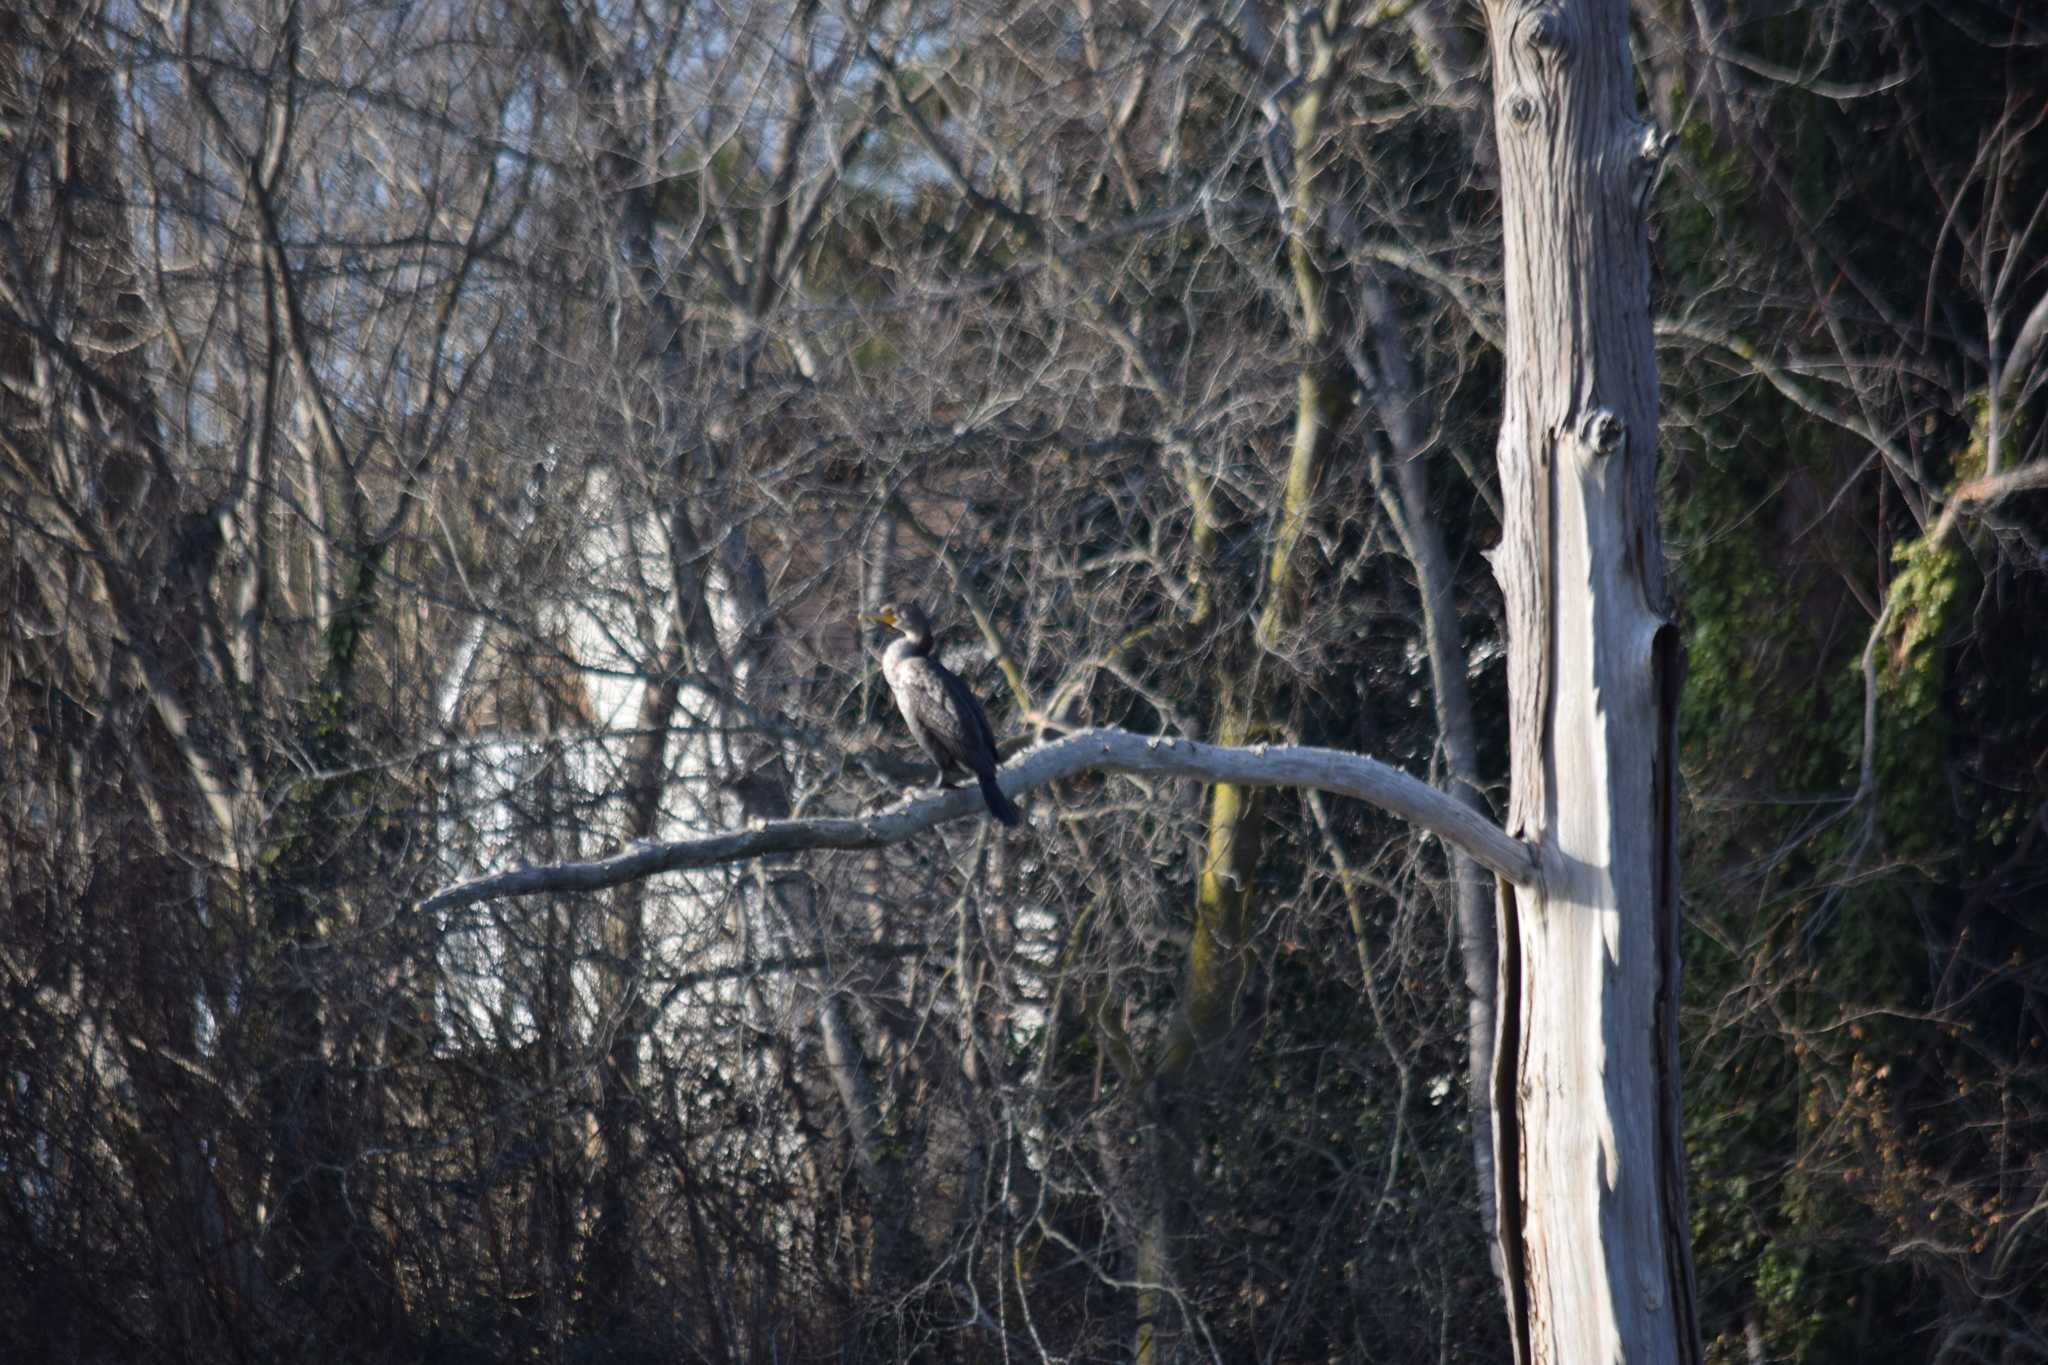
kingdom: Animalia
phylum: Chordata
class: Aves
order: Suliformes
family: Phalacrocoracidae
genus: Phalacrocorax
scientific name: Phalacrocorax auritus
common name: Double-crested cormorant
